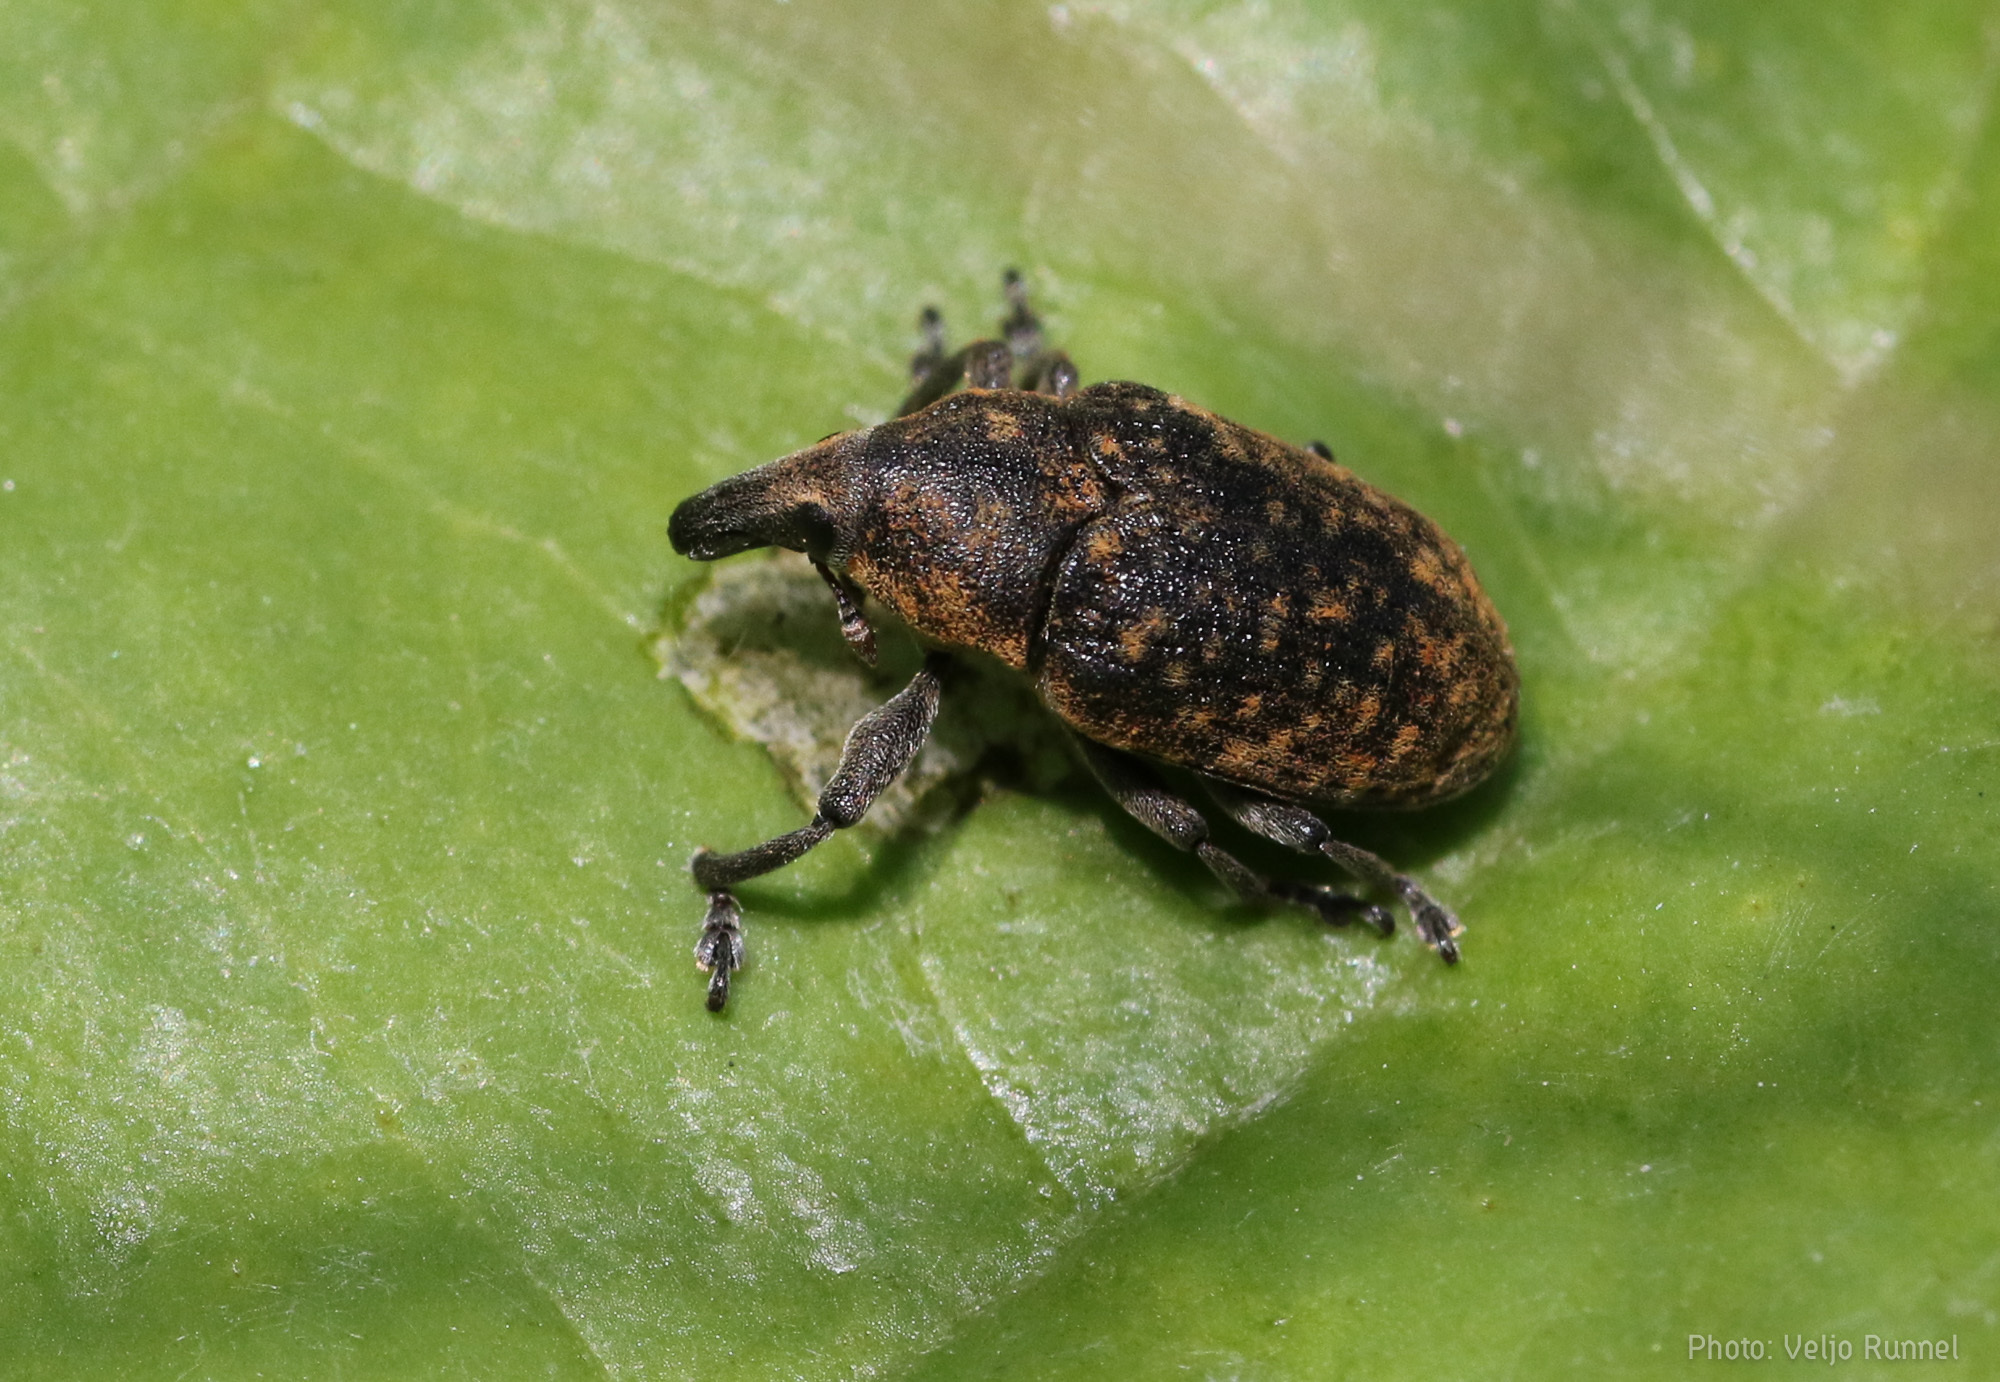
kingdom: Animalia
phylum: Arthropoda
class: Insecta
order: Coleoptera
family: Curculionidae
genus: Larinus
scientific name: Larinus turbinatus
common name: Weevil
